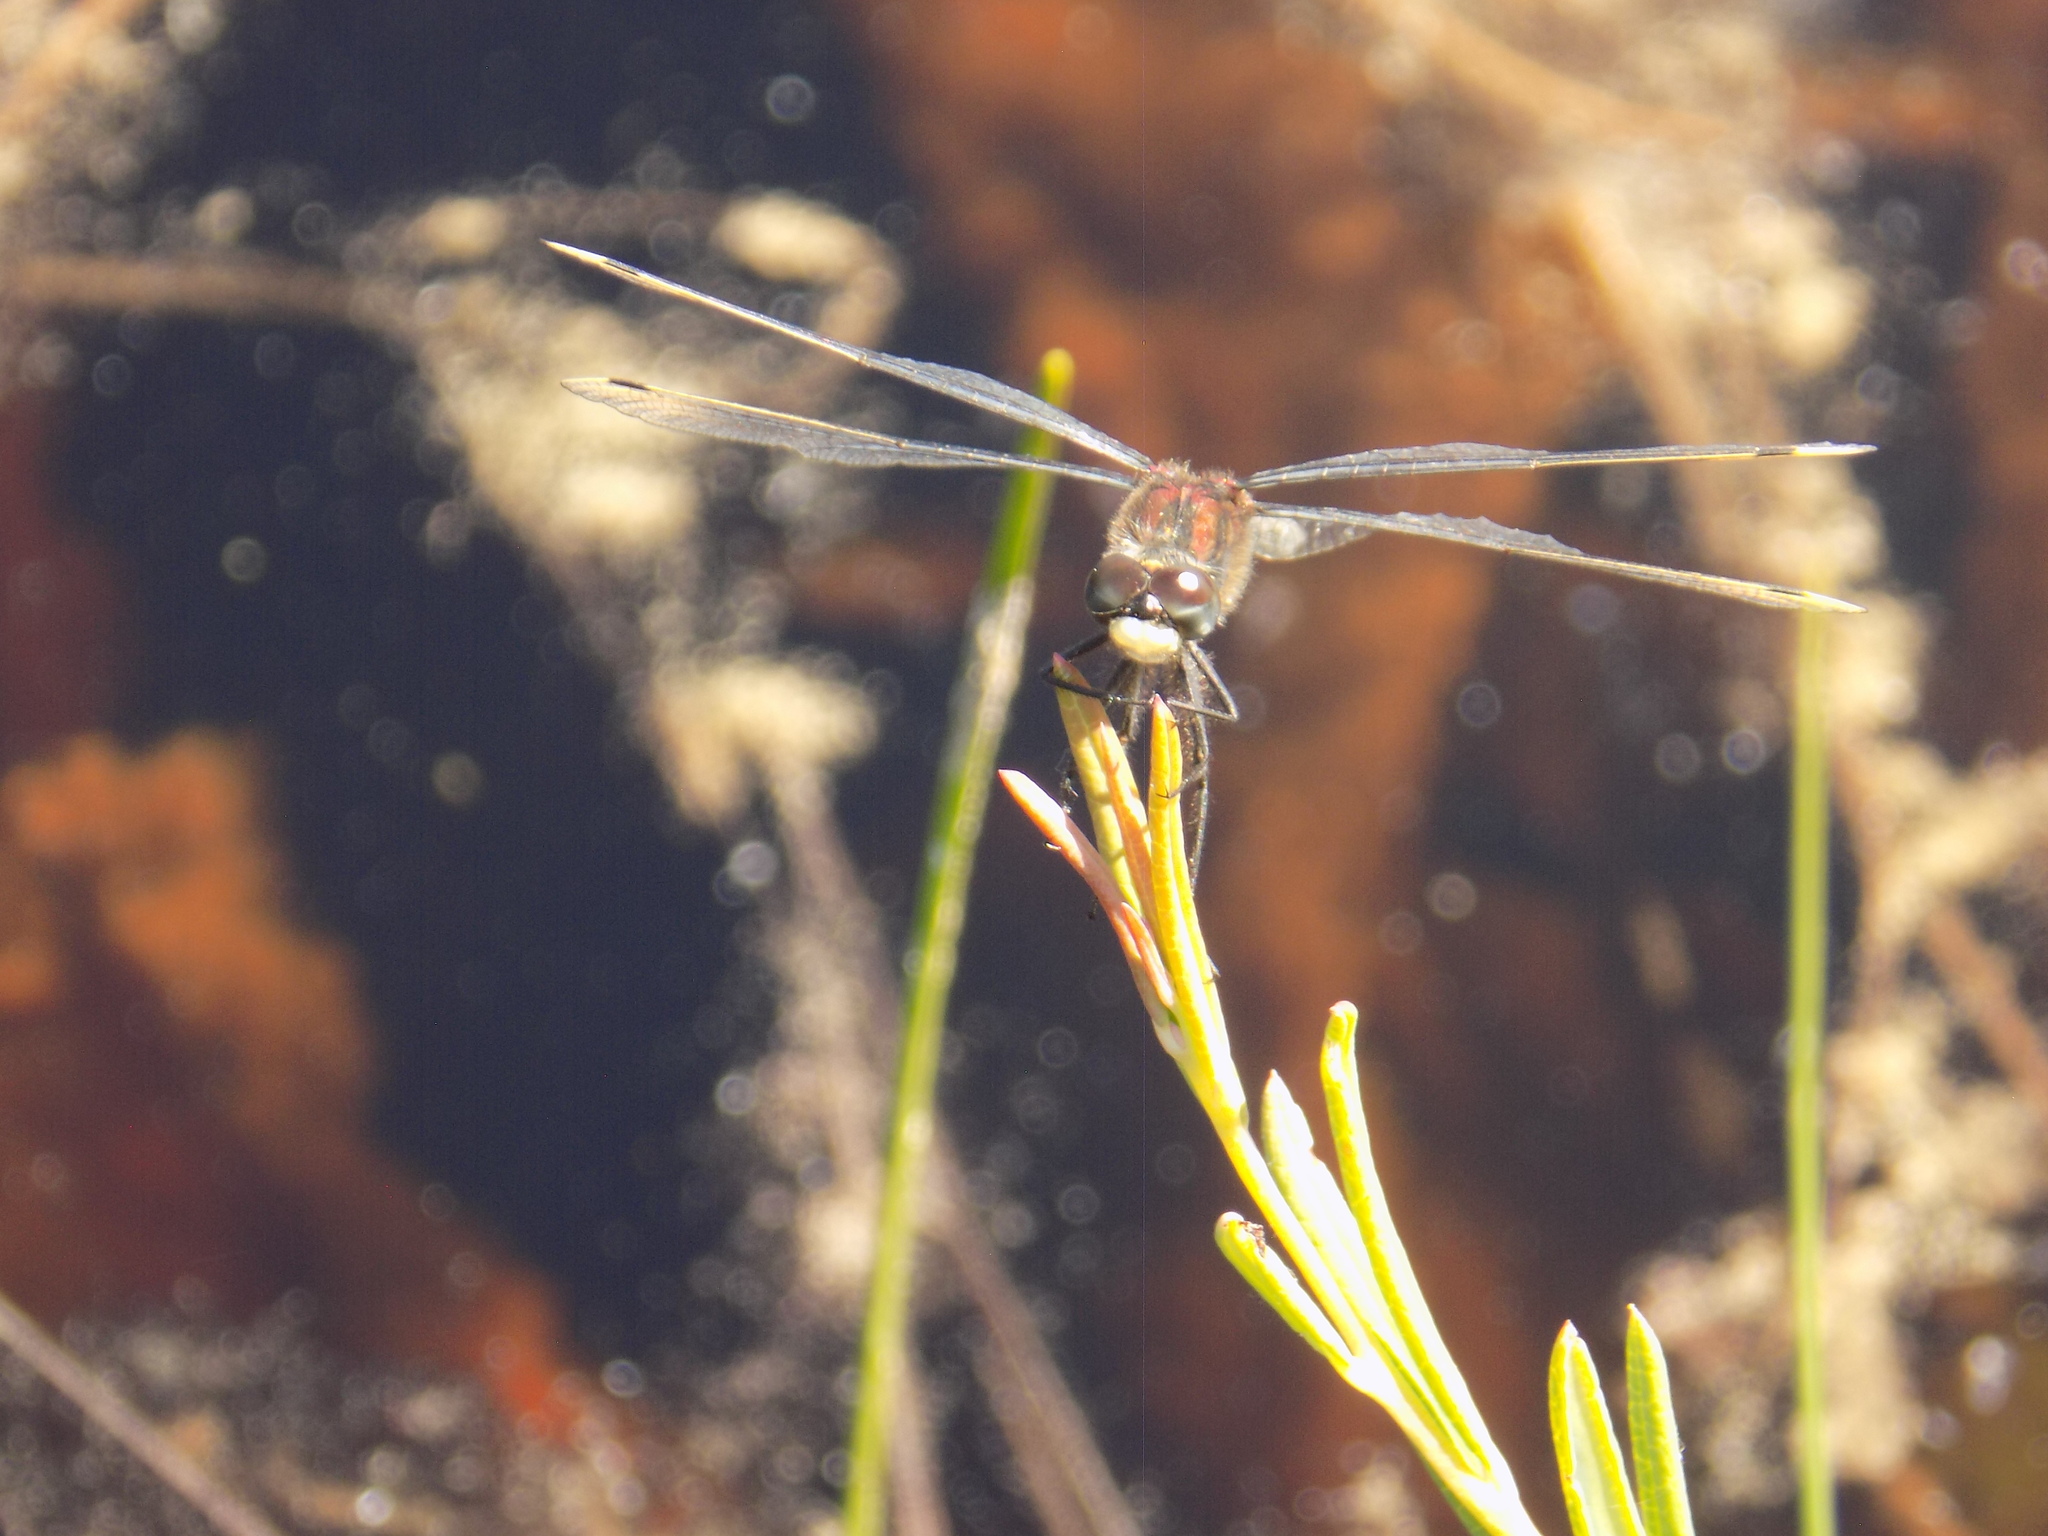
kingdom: Animalia
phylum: Arthropoda
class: Insecta
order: Odonata
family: Libellulidae
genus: Leucorrhinia
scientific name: Leucorrhinia
